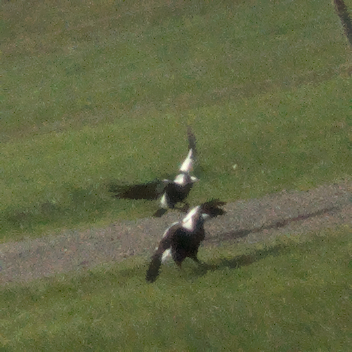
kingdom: Animalia
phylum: Chordata
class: Aves
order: Passeriformes
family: Cracticidae
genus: Gymnorhina
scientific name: Gymnorhina tibicen
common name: Australian magpie
